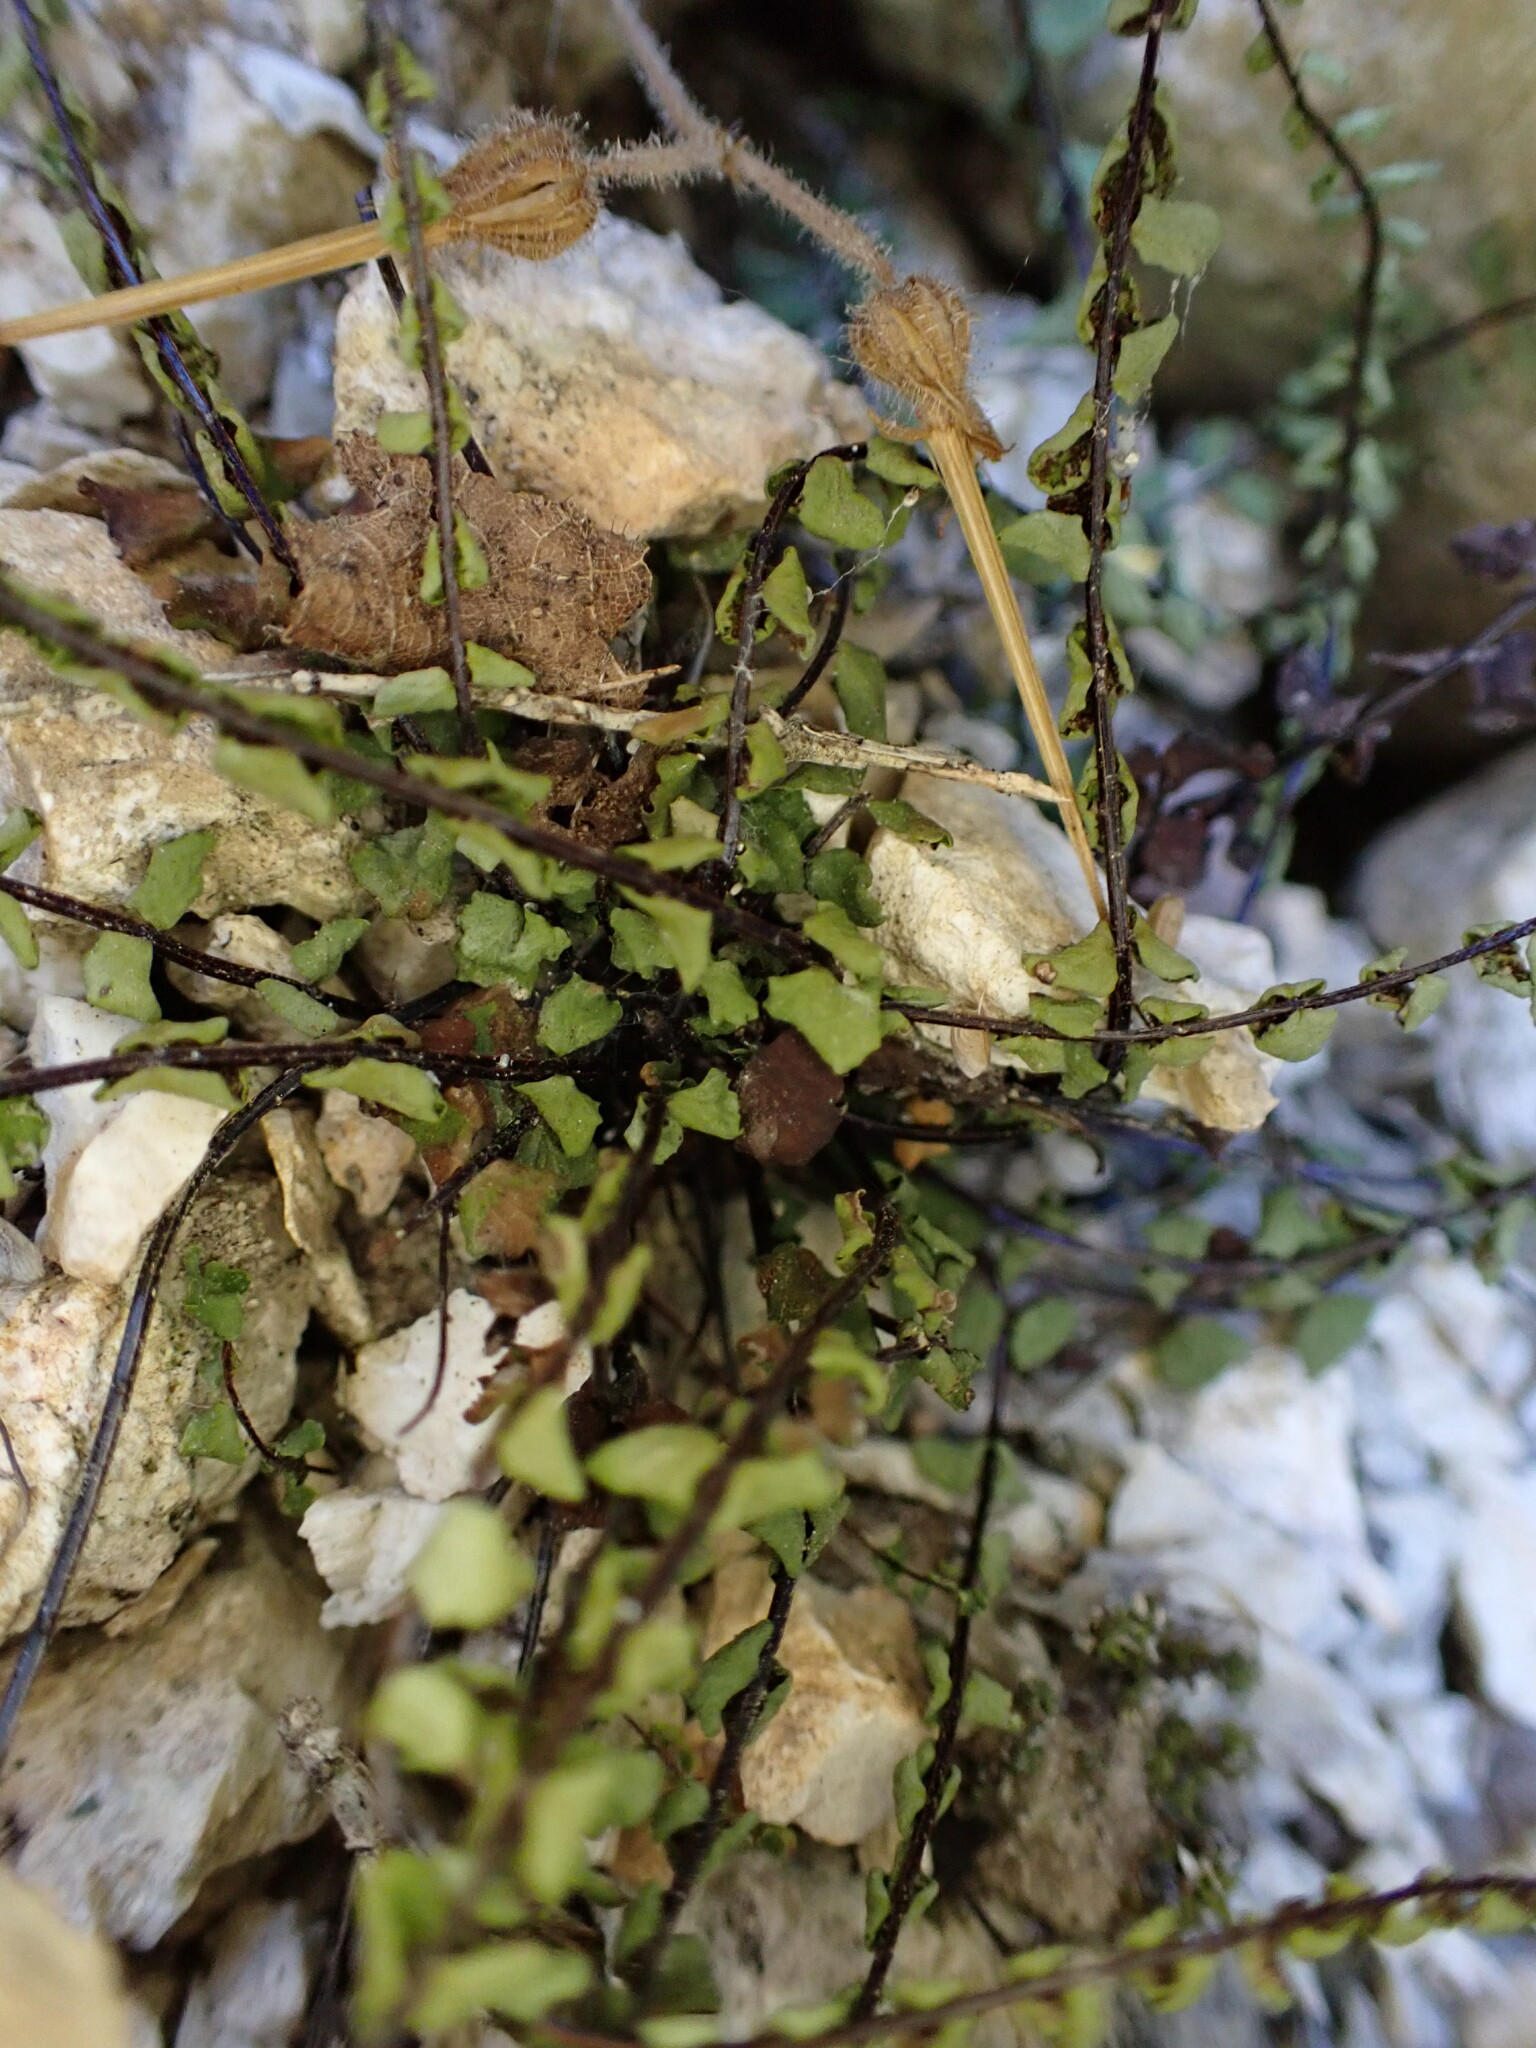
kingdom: Plantae
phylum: Tracheophyta
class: Polypodiopsida
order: Polypodiales
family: Aspleniaceae
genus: Asplenium
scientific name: Asplenium trichomanes
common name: Maidenhair spleenwort
